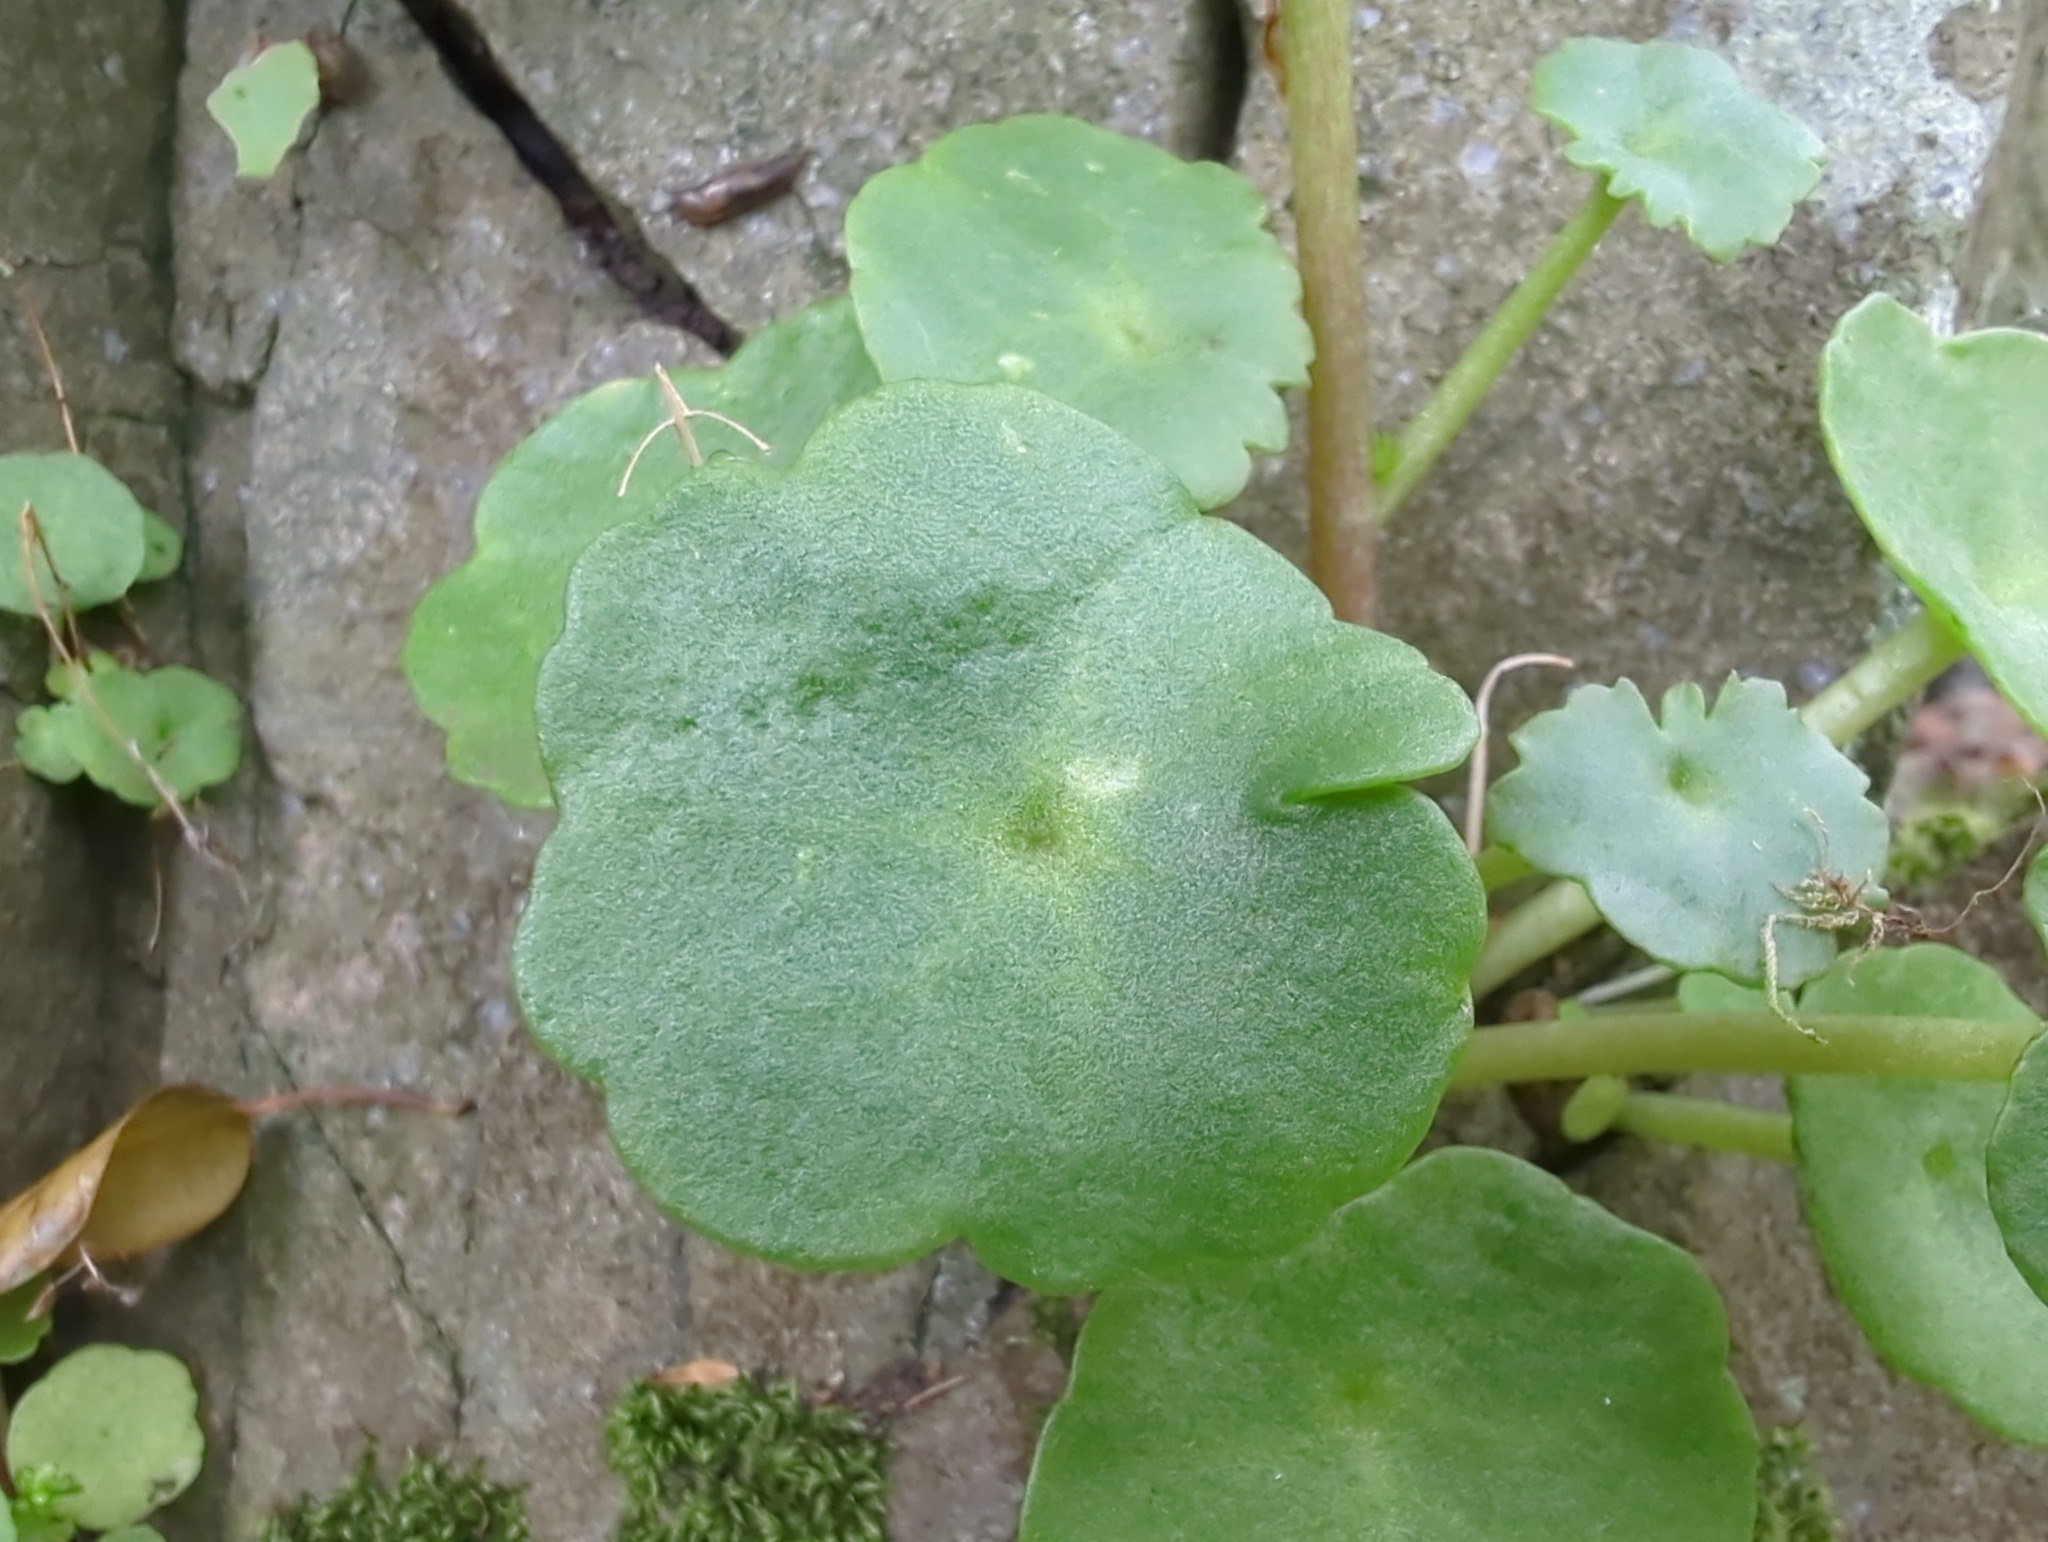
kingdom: Plantae
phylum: Tracheophyta
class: Magnoliopsida
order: Saxifragales
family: Crassulaceae
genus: Umbilicus
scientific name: Umbilicus rupestris
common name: Navelwort
